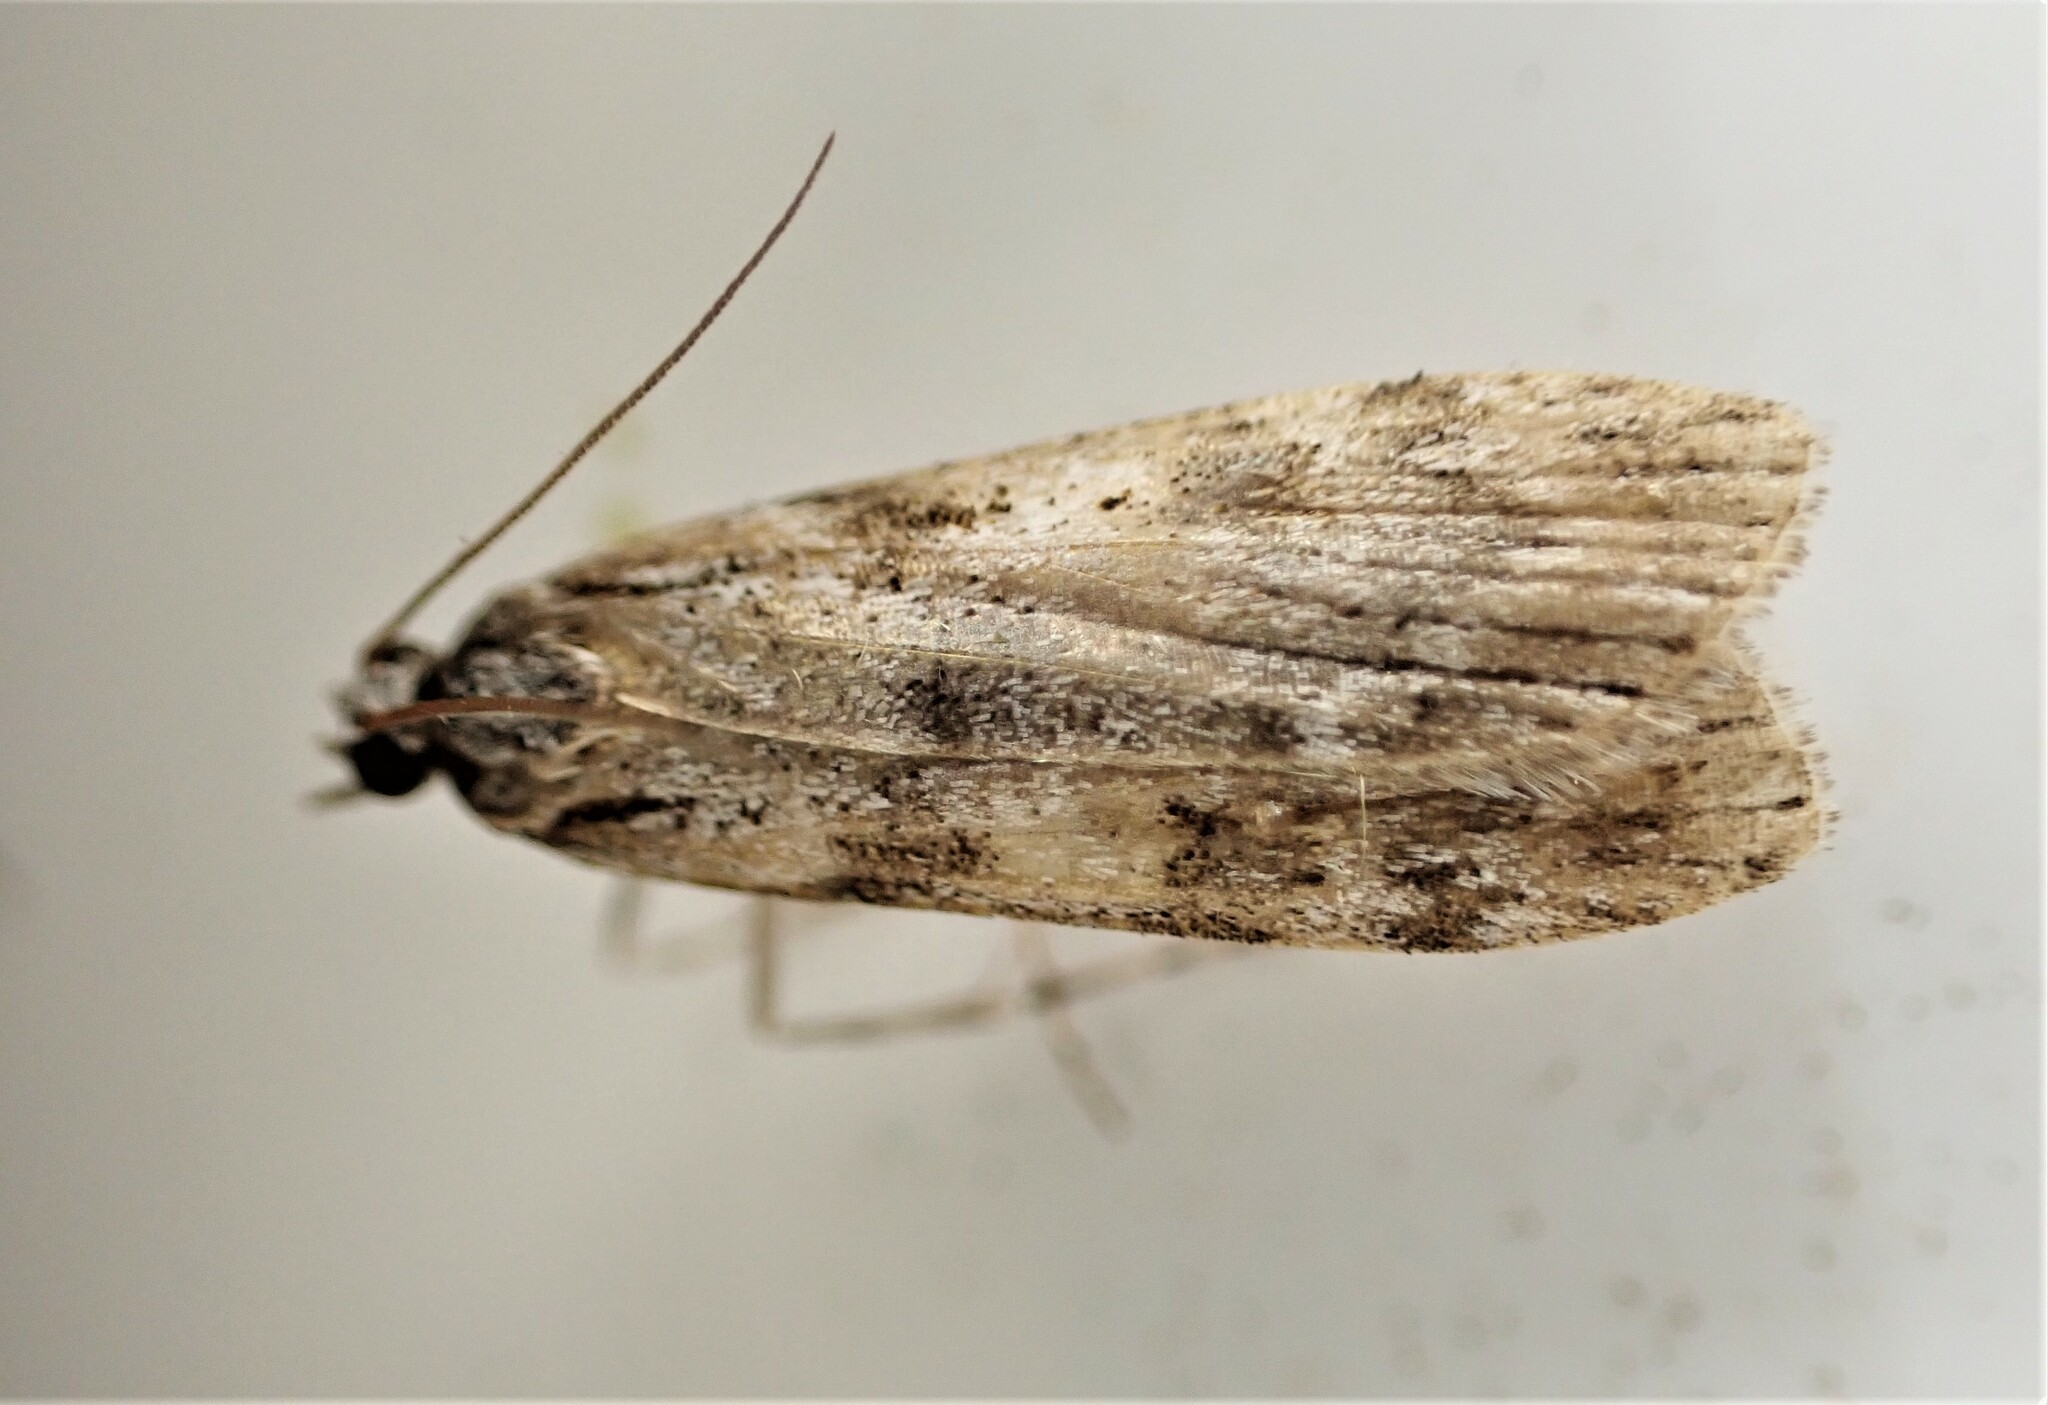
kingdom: Animalia
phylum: Arthropoda
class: Insecta
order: Lepidoptera
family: Crambidae
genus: Scoparia
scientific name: Scoparia halopis
